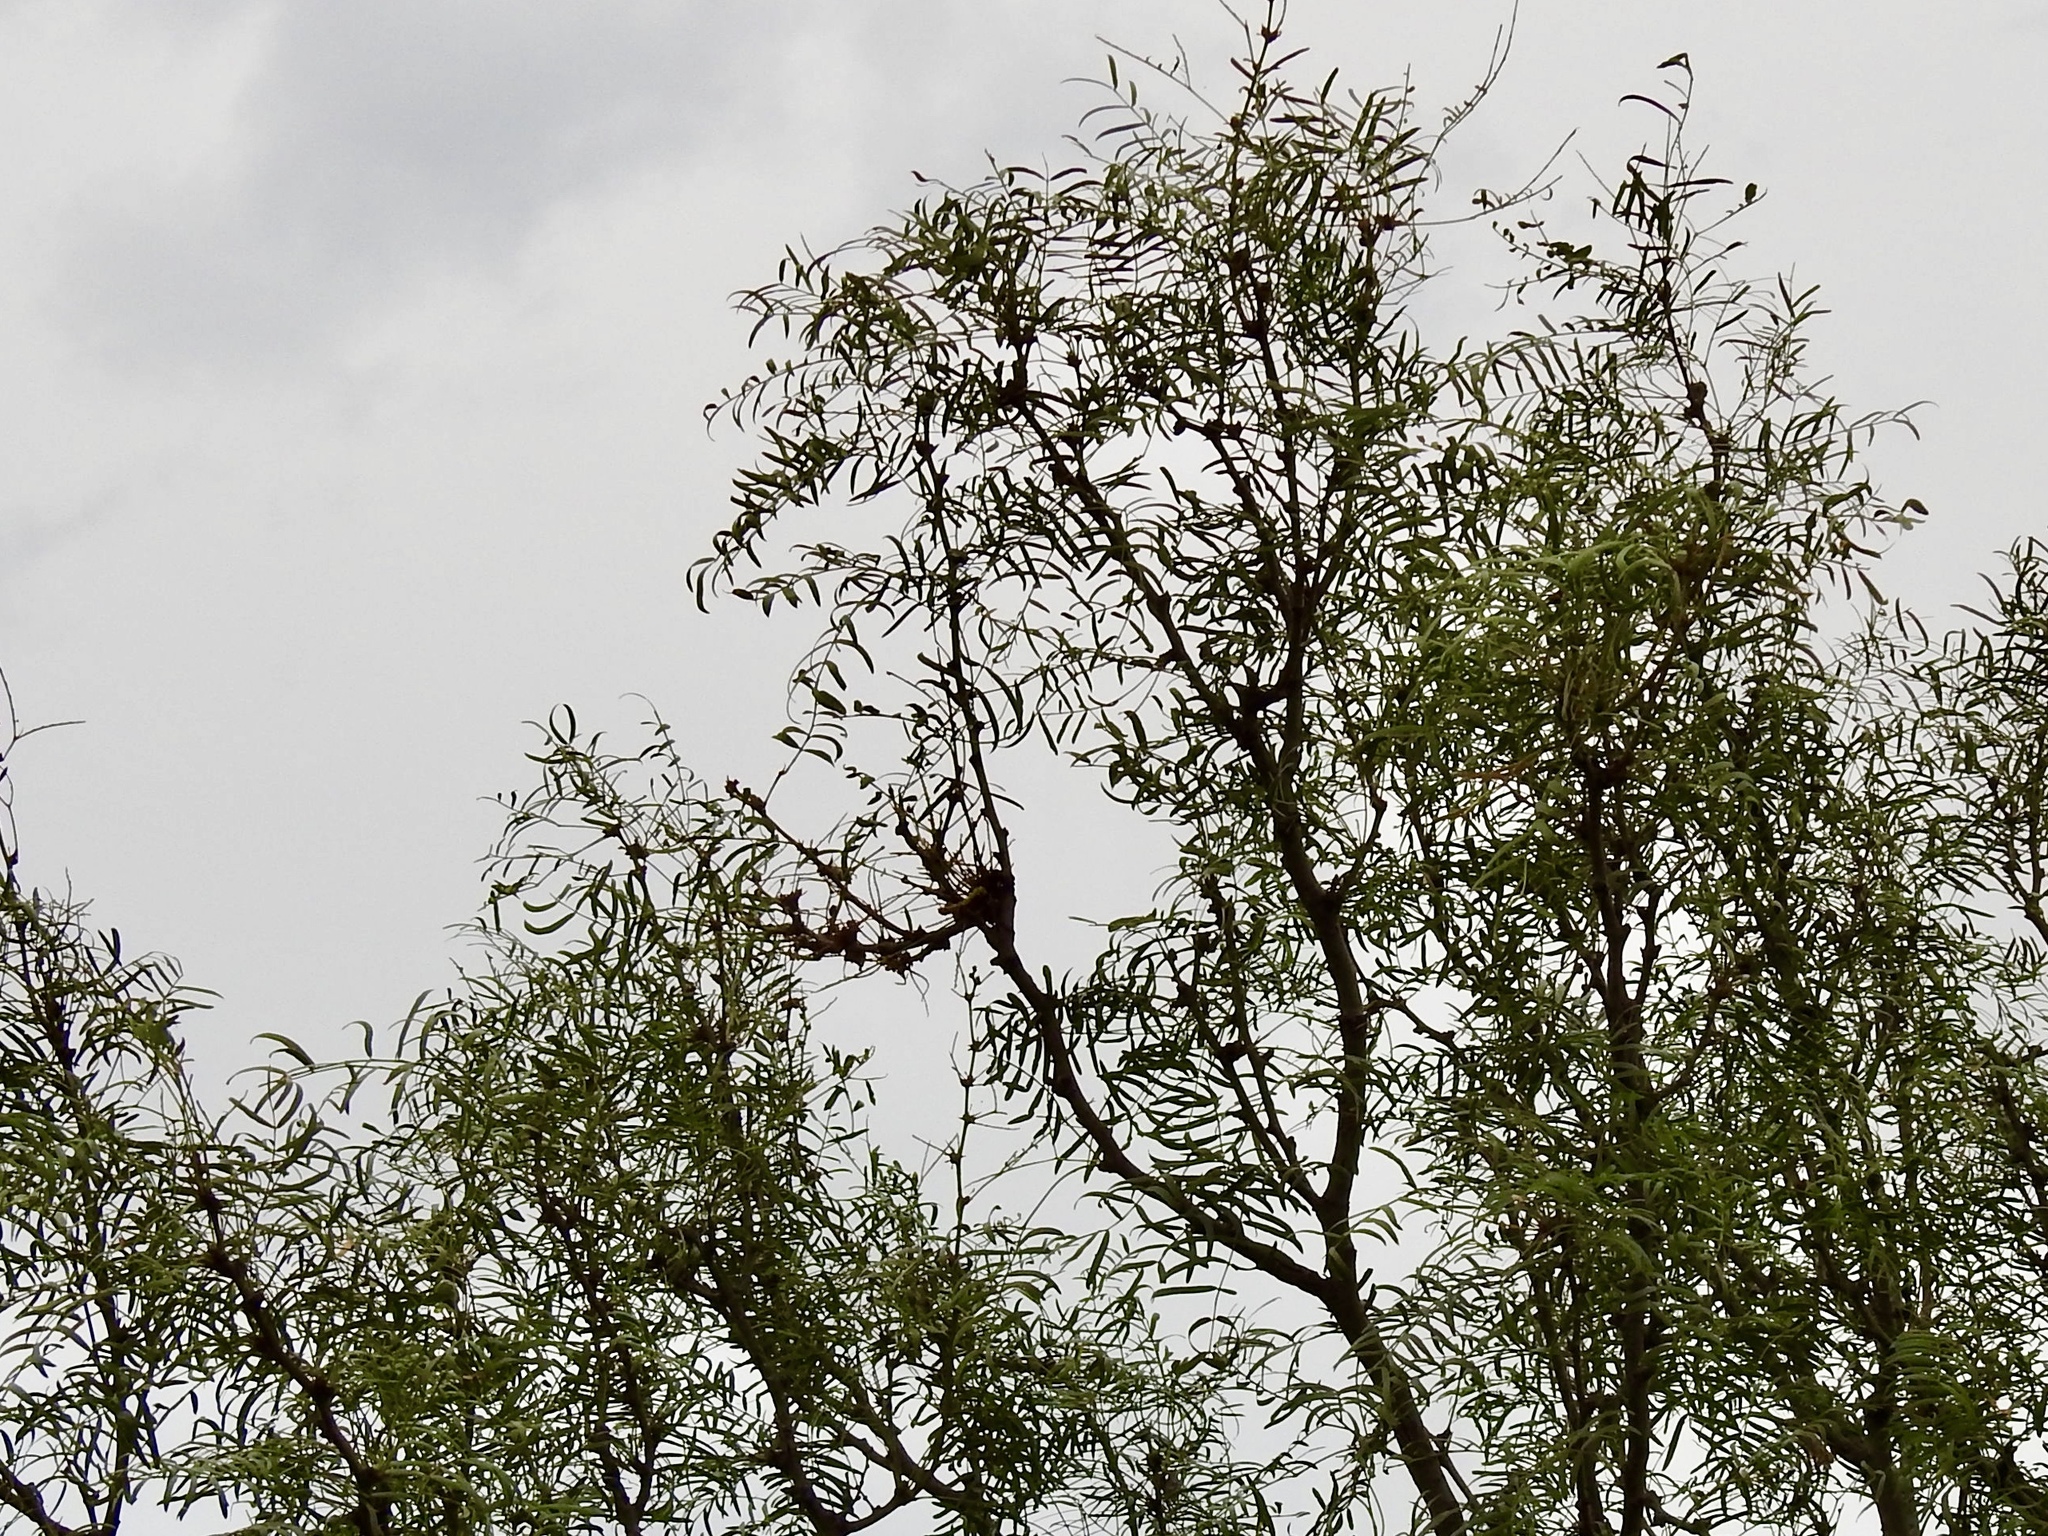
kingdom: Plantae
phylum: Tracheophyta
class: Magnoliopsida
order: Fabales
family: Fabaceae
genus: Prosopis
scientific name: Prosopis glandulosa
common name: Honey mesquite
